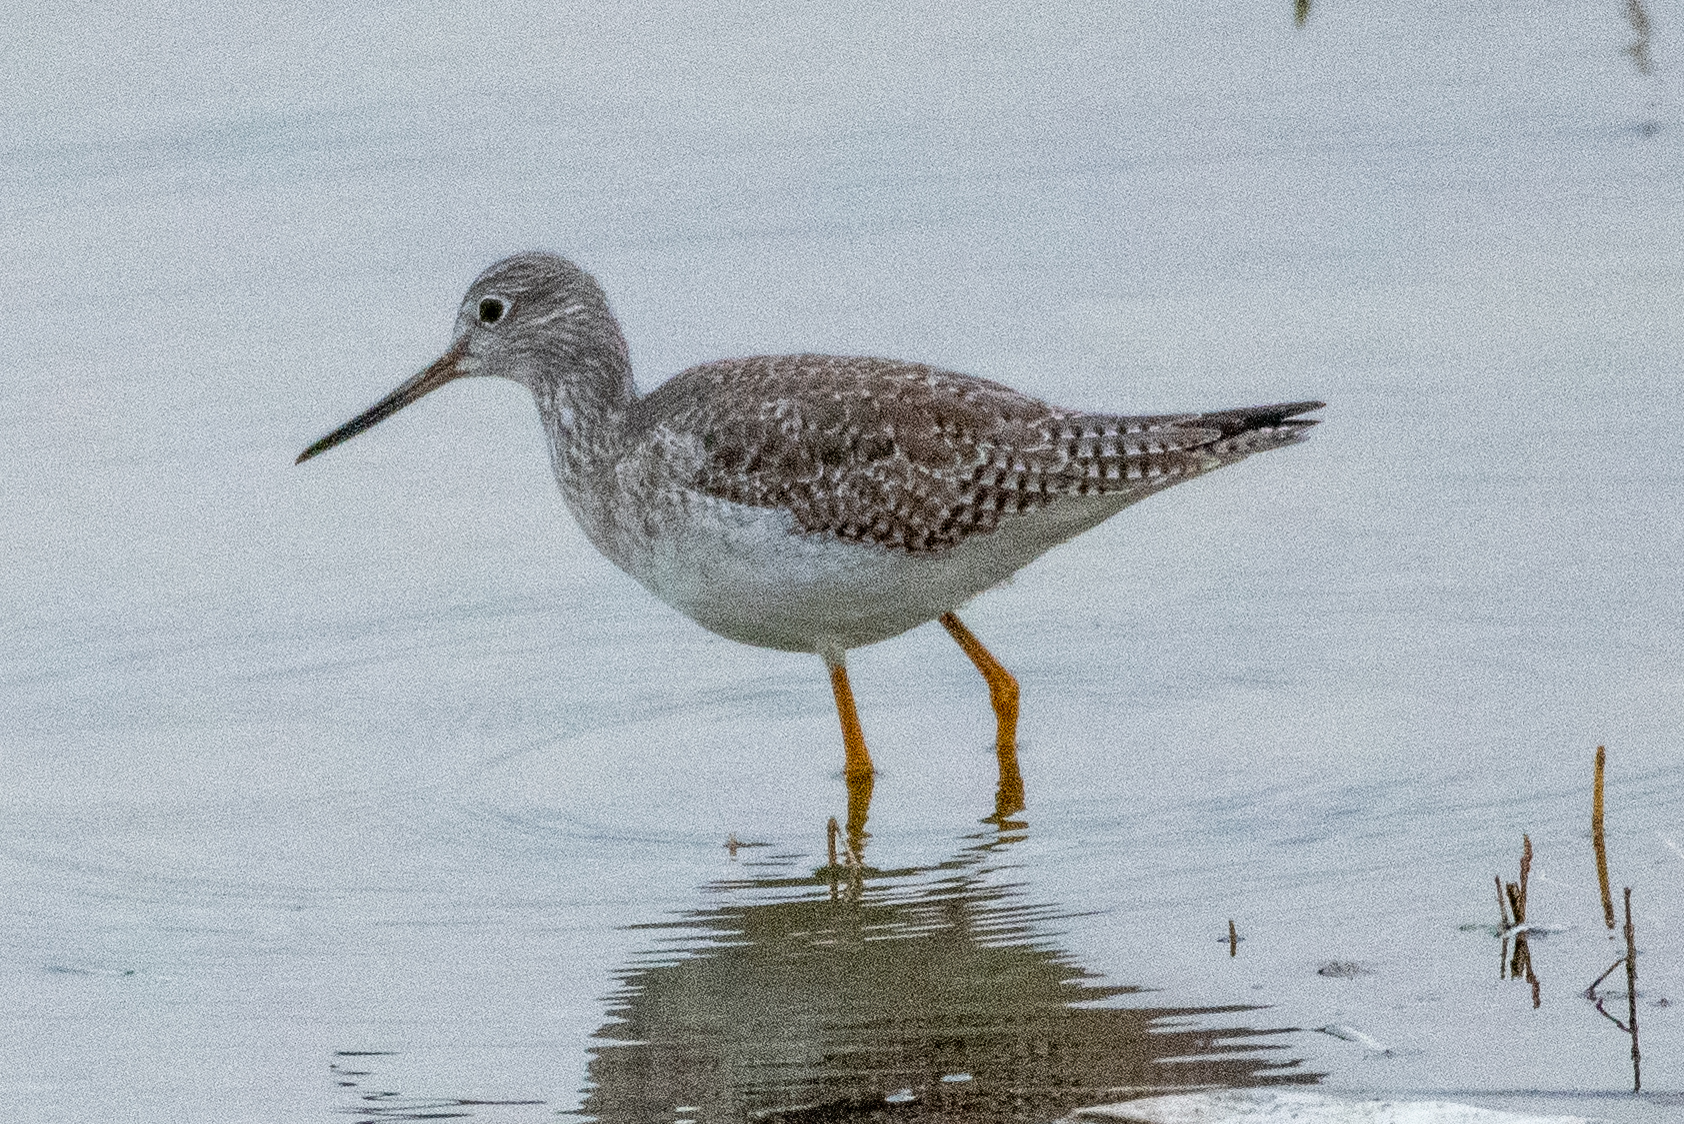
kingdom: Animalia
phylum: Chordata
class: Aves
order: Charadriiformes
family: Scolopacidae
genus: Tringa
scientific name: Tringa melanoleuca
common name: Greater yellowlegs
